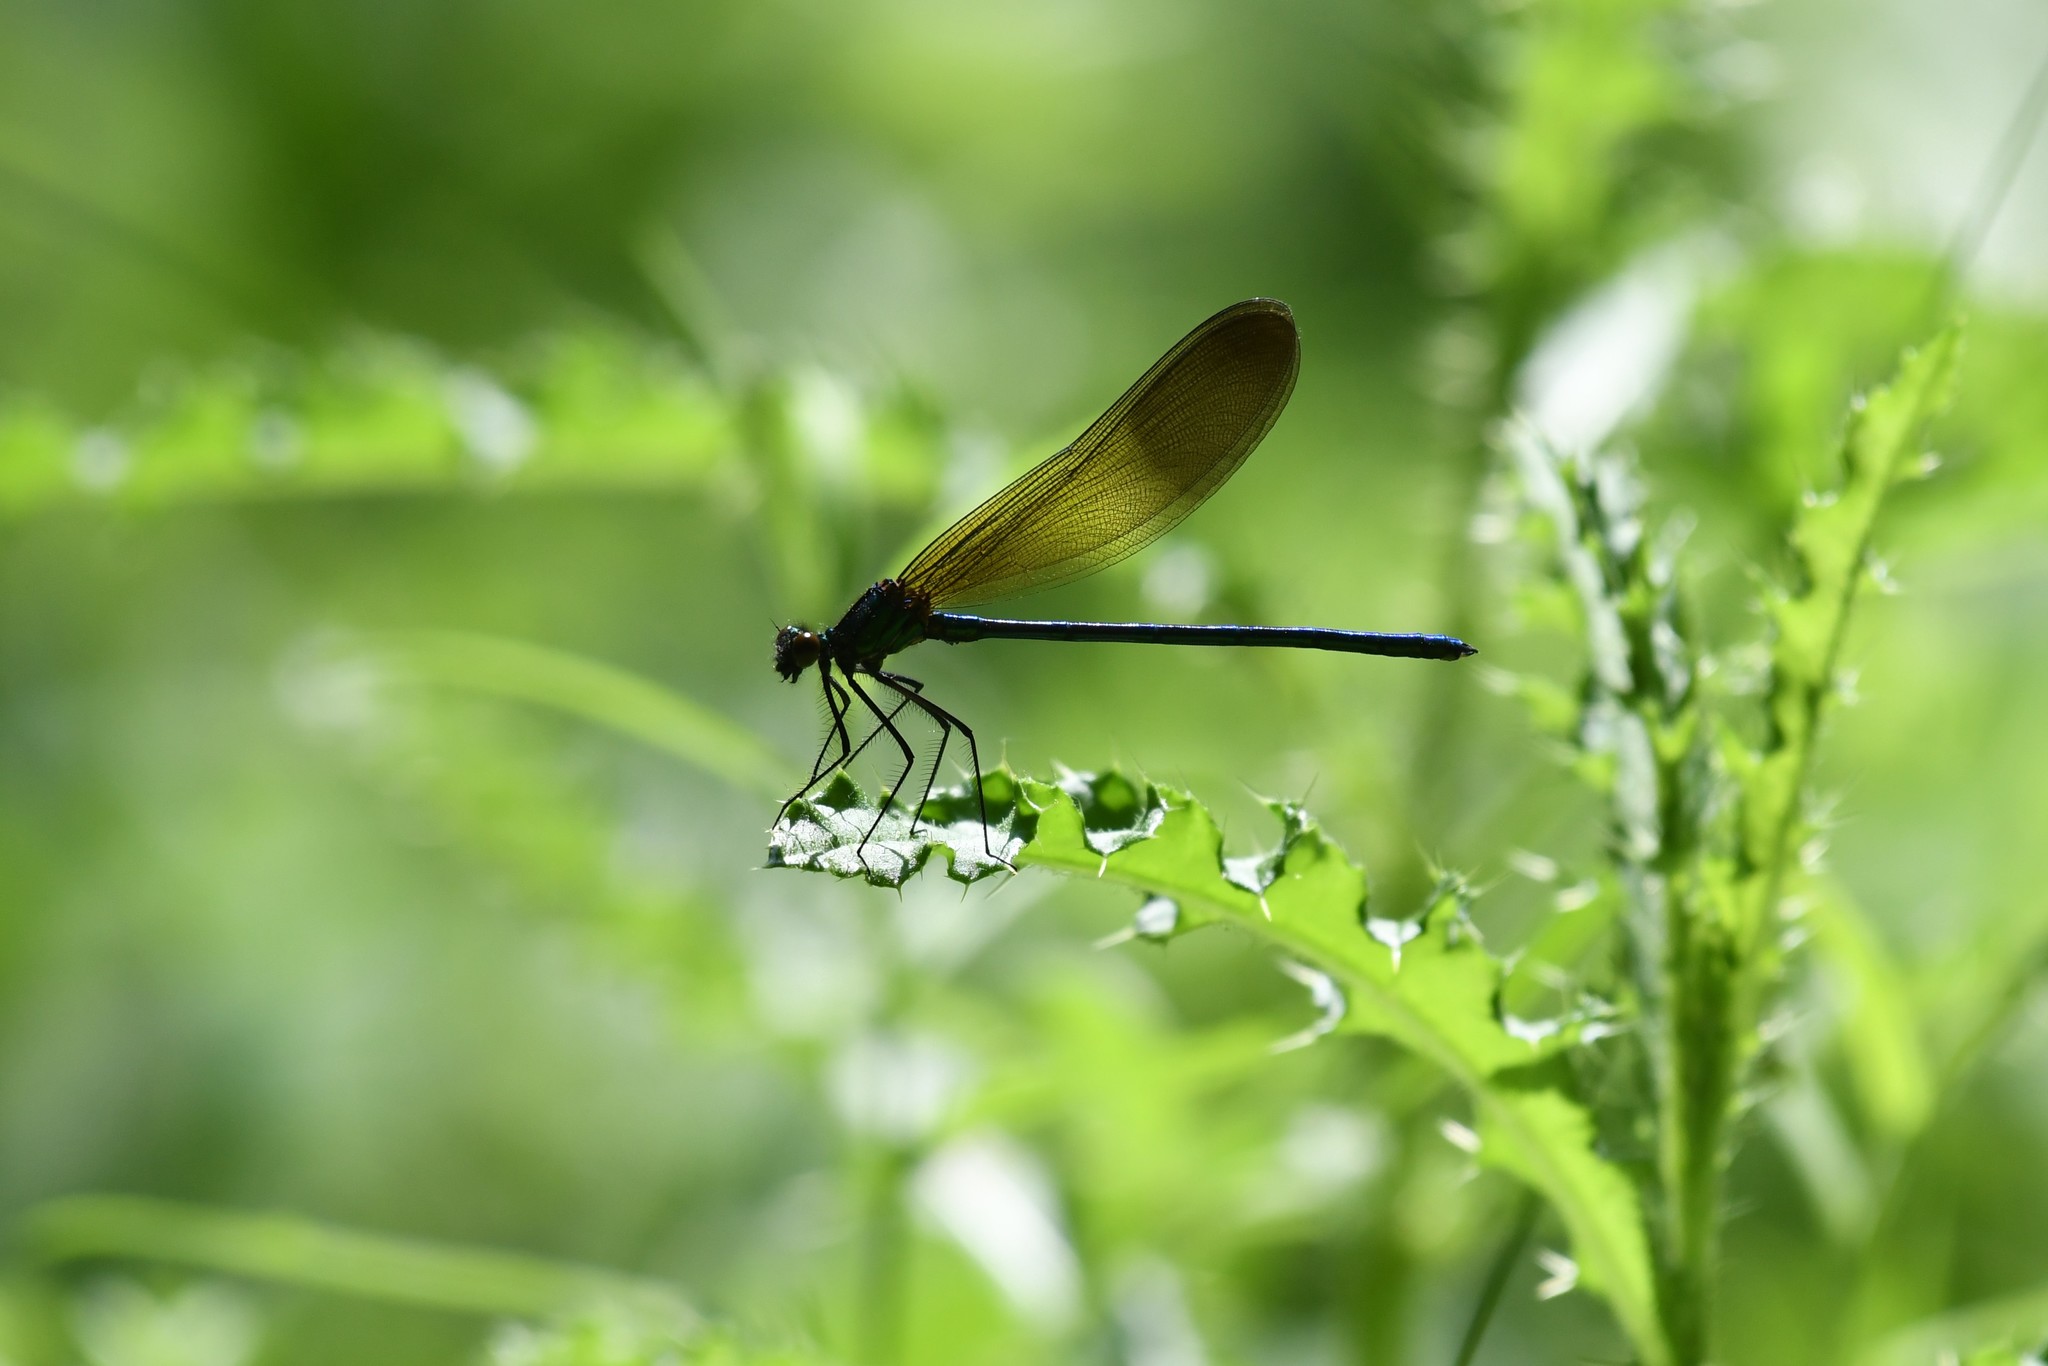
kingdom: Animalia
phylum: Arthropoda
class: Insecta
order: Odonata
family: Calopterygidae
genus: Calopteryx
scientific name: Calopteryx aequabilis
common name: River jewelwing
